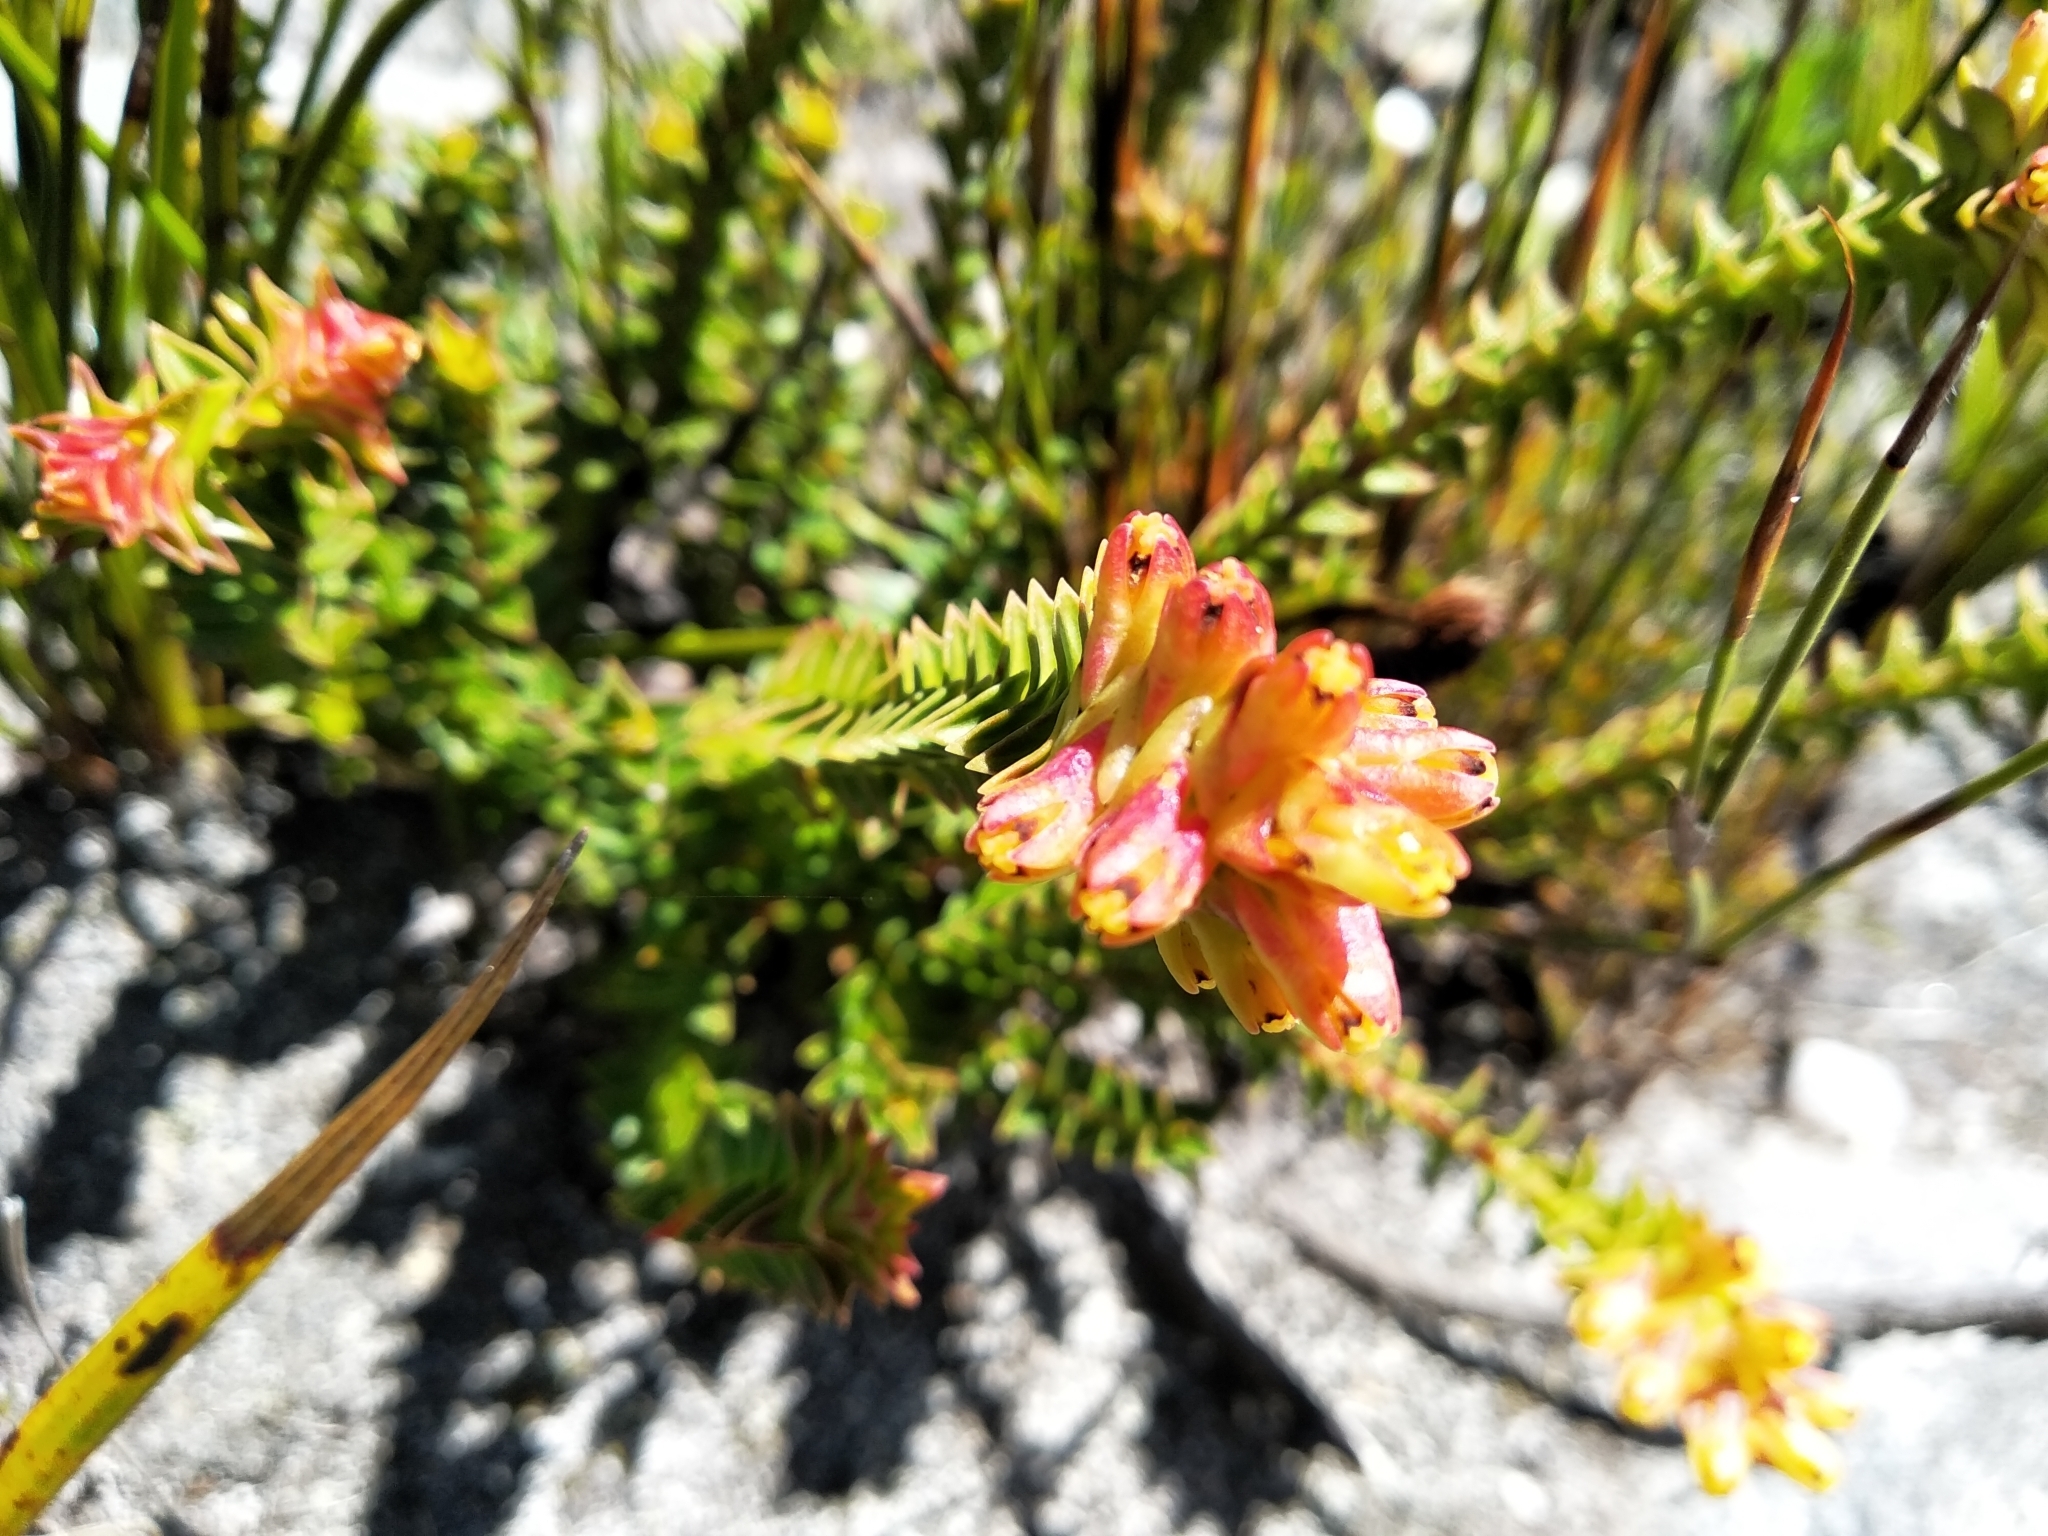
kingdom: Plantae
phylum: Tracheophyta
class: Magnoliopsida
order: Myrtales
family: Penaeaceae
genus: Penaea
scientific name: Penaea mucronata
